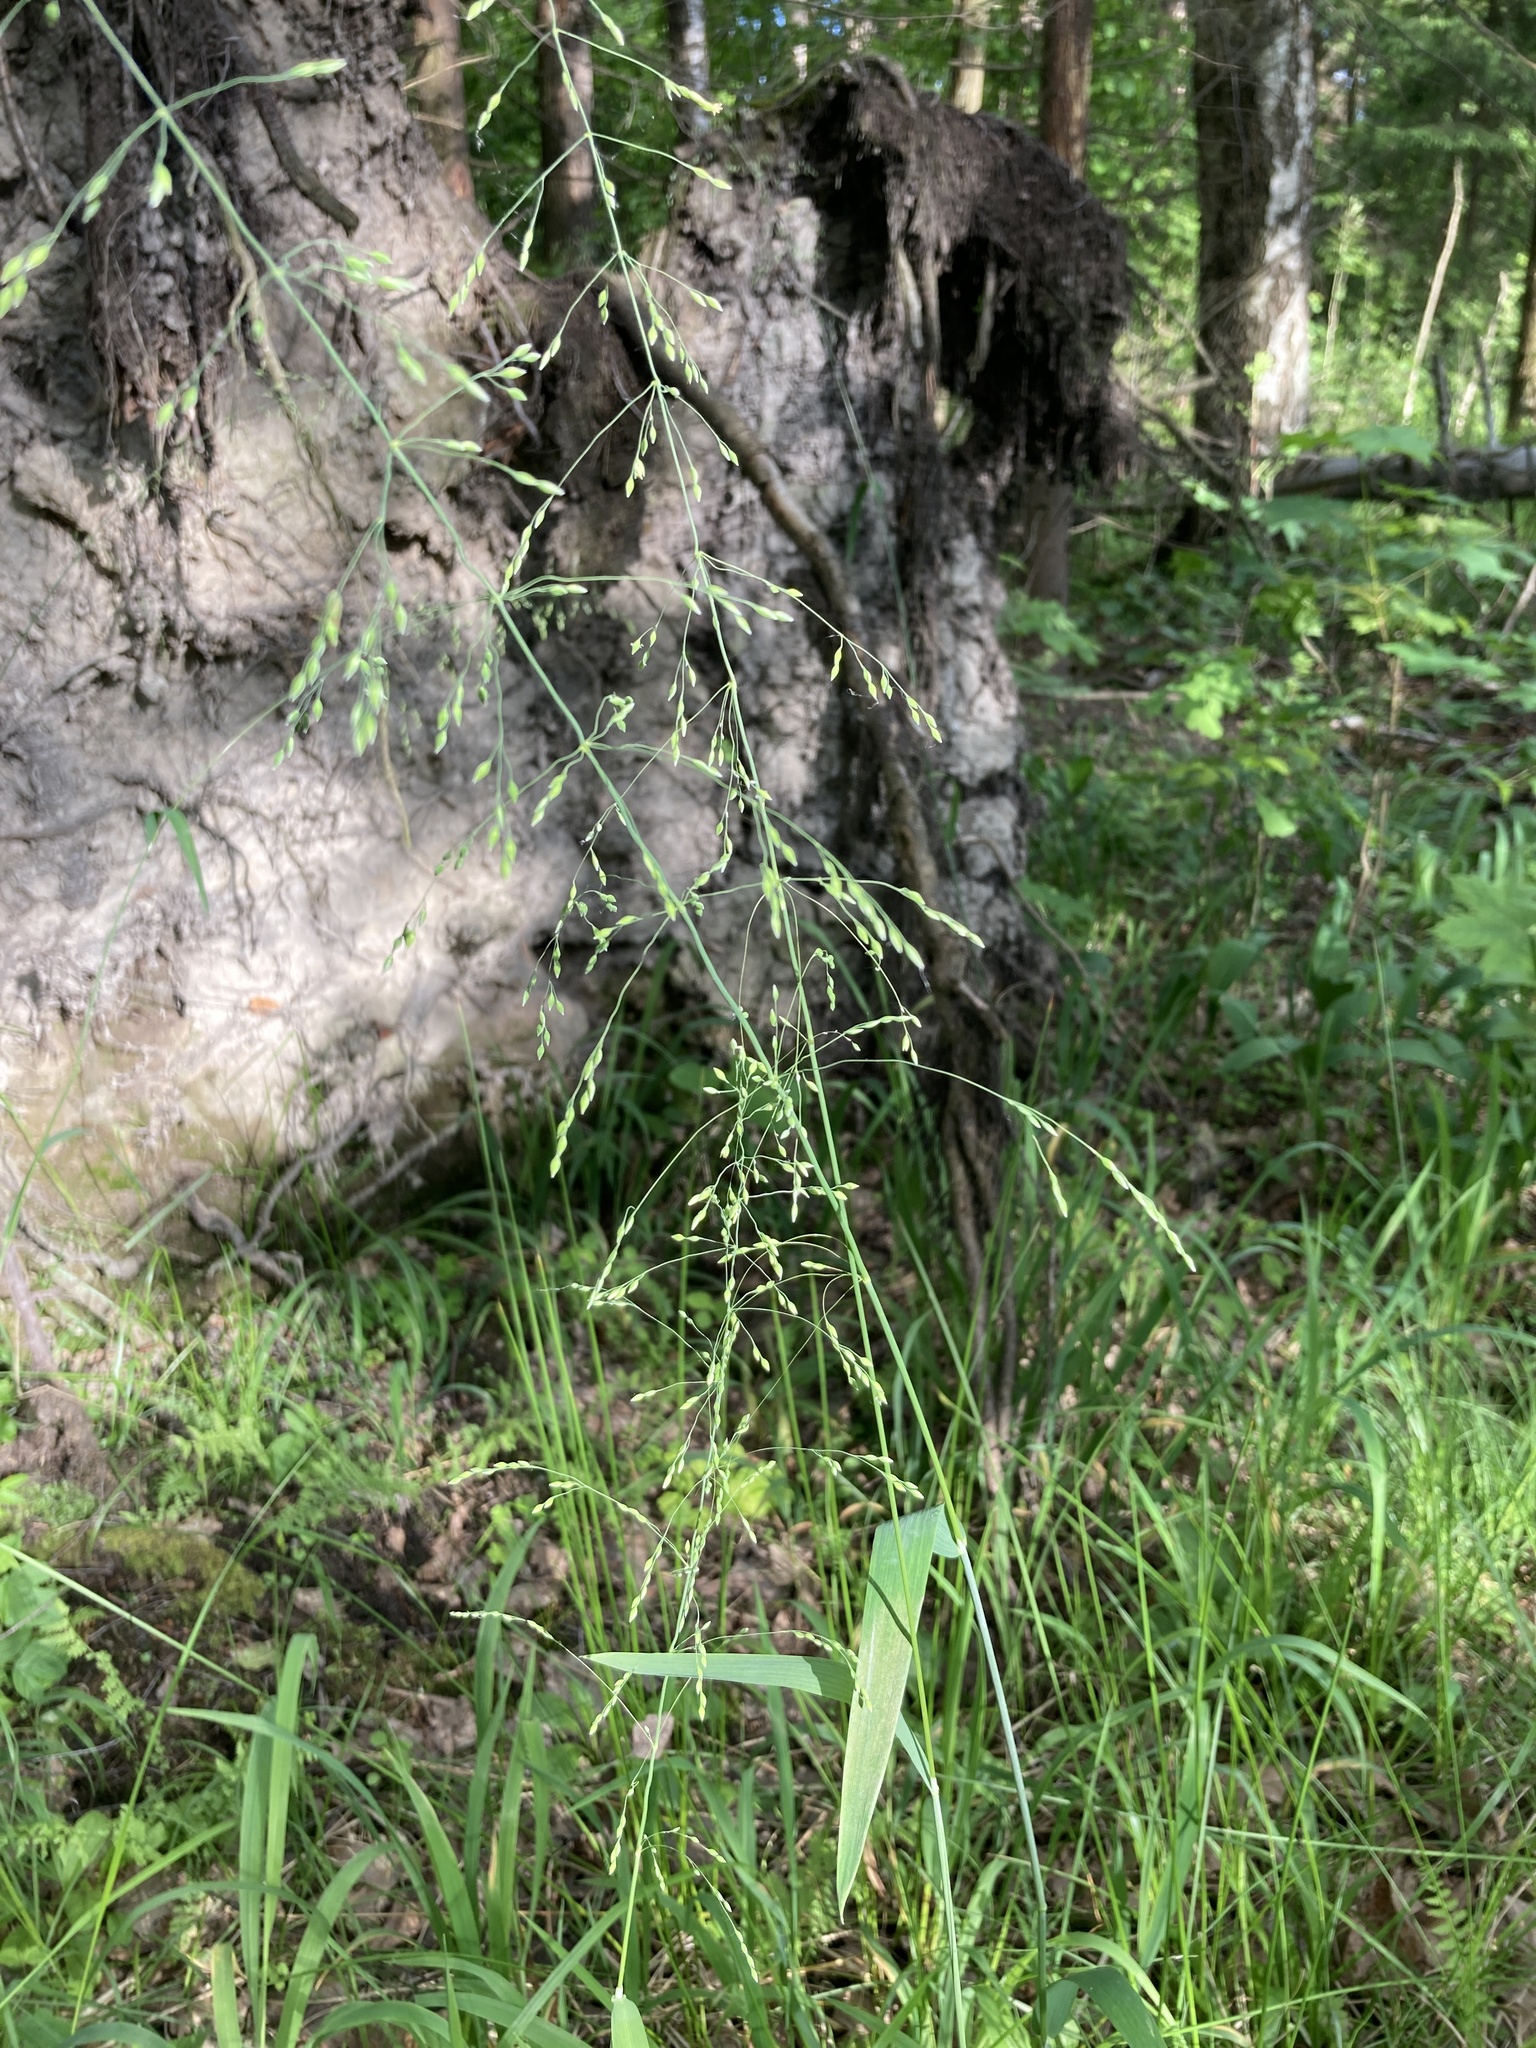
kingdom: Plantae
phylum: Tracheophyta
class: Liliopsida
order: Poales
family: Poaceae
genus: Milium
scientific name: Milium effusum
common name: Wood millet
